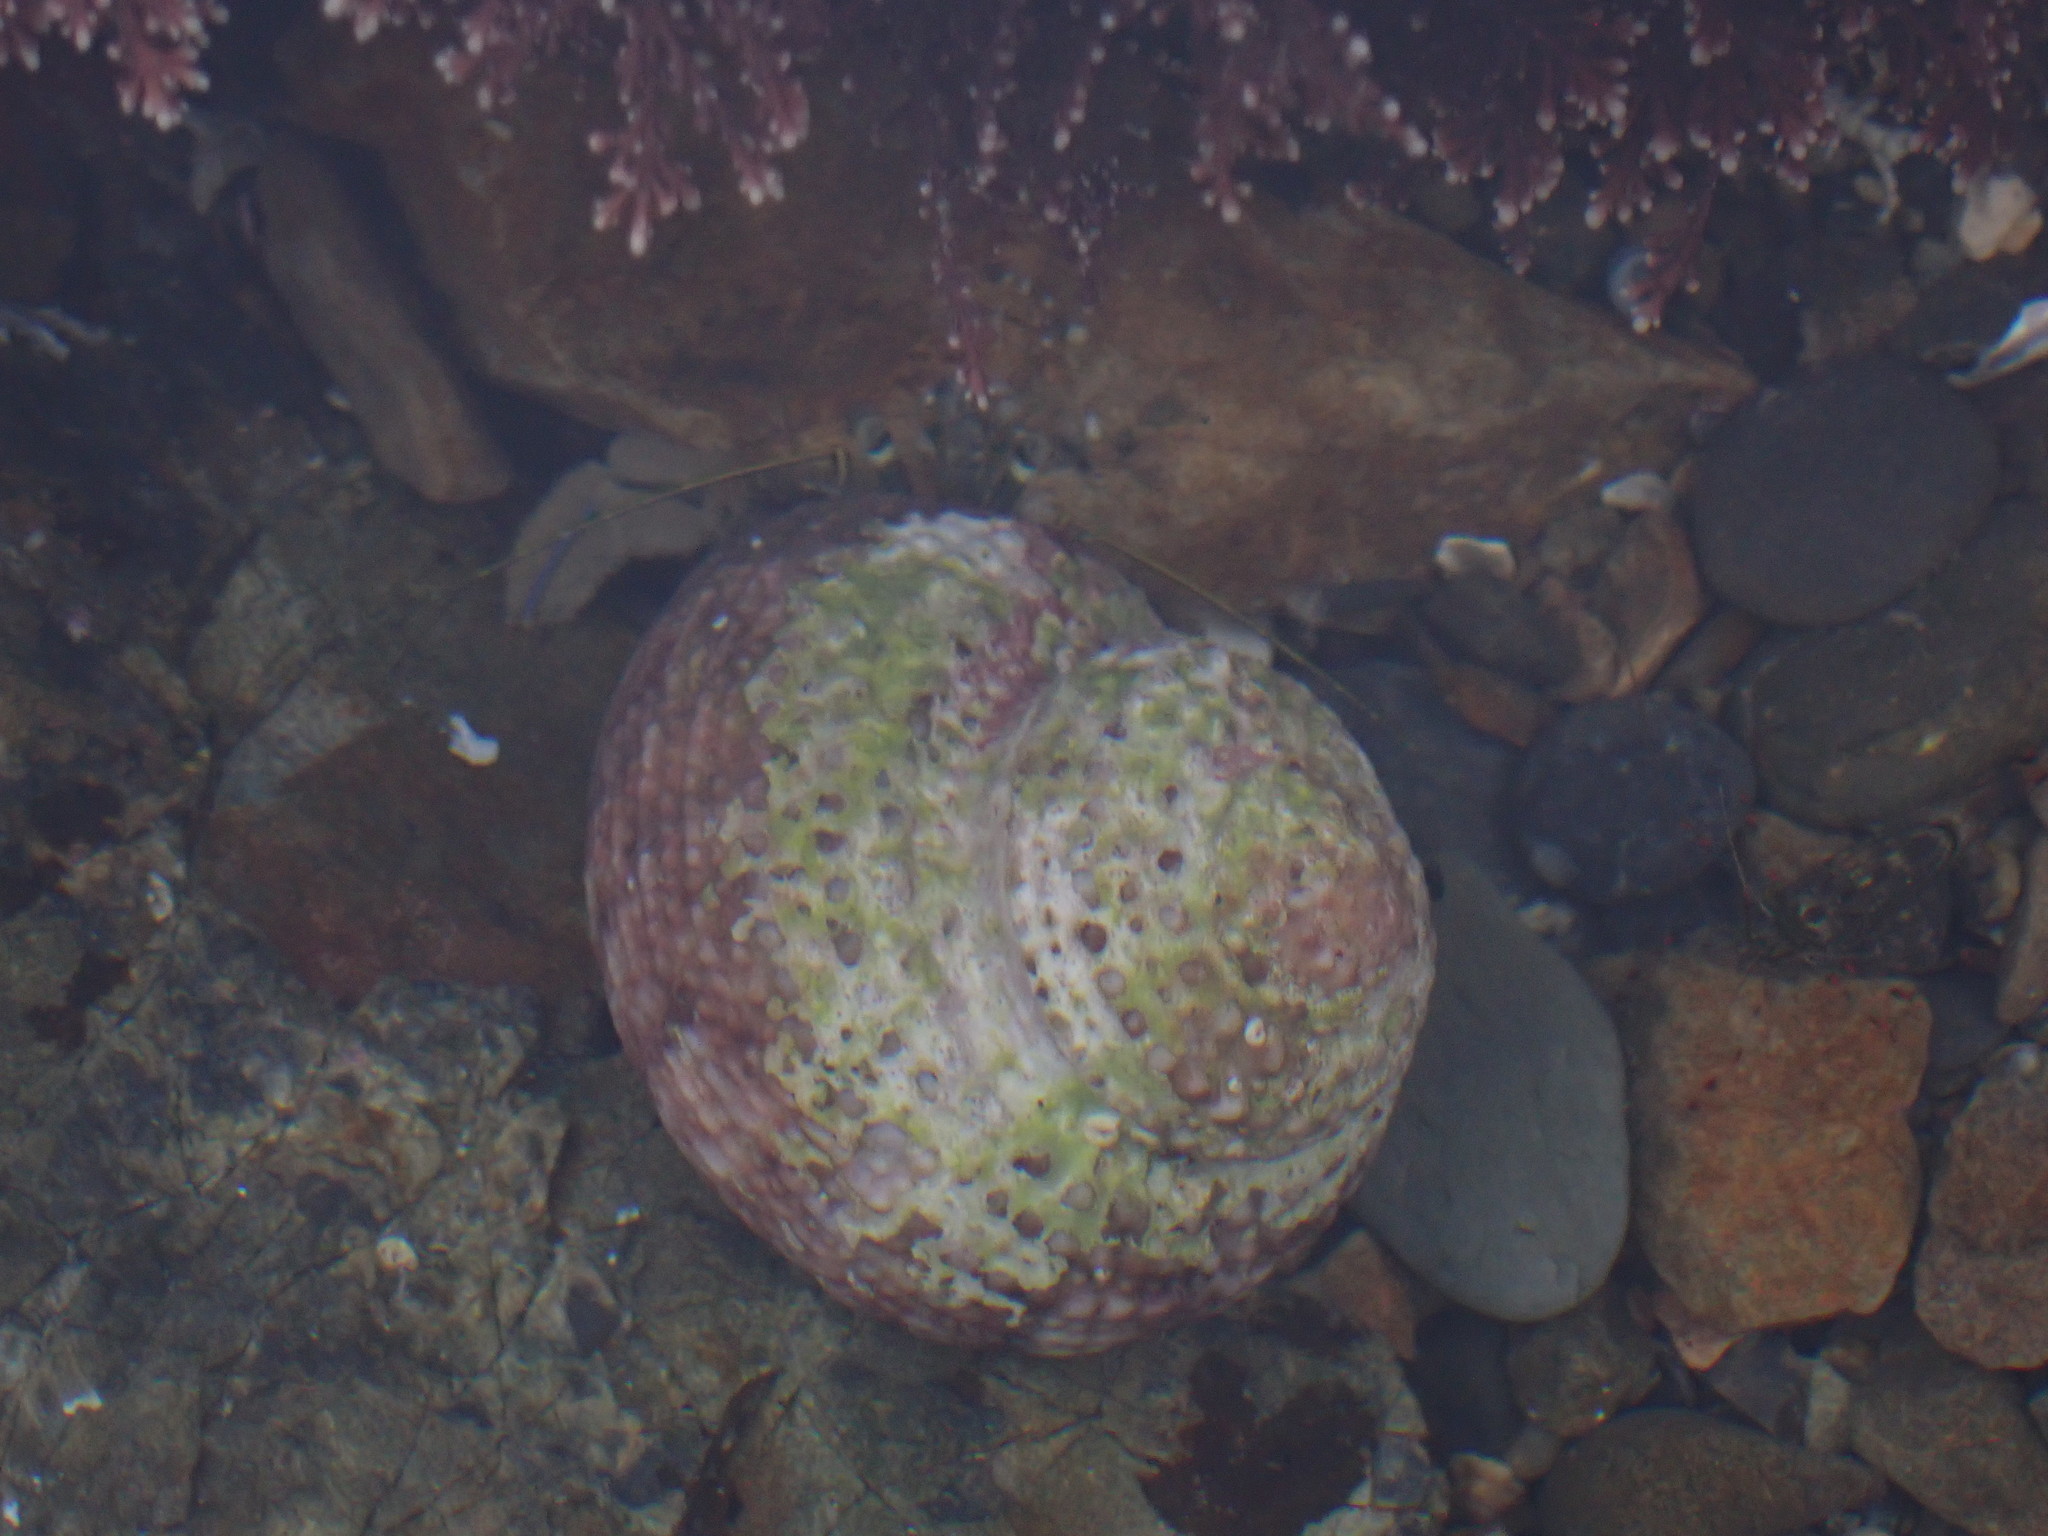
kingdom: Animalia
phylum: Arthropoda
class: Malacostraca
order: Decapoda
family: Paguridae
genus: Pagurus
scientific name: Pagurus novizealandiae
